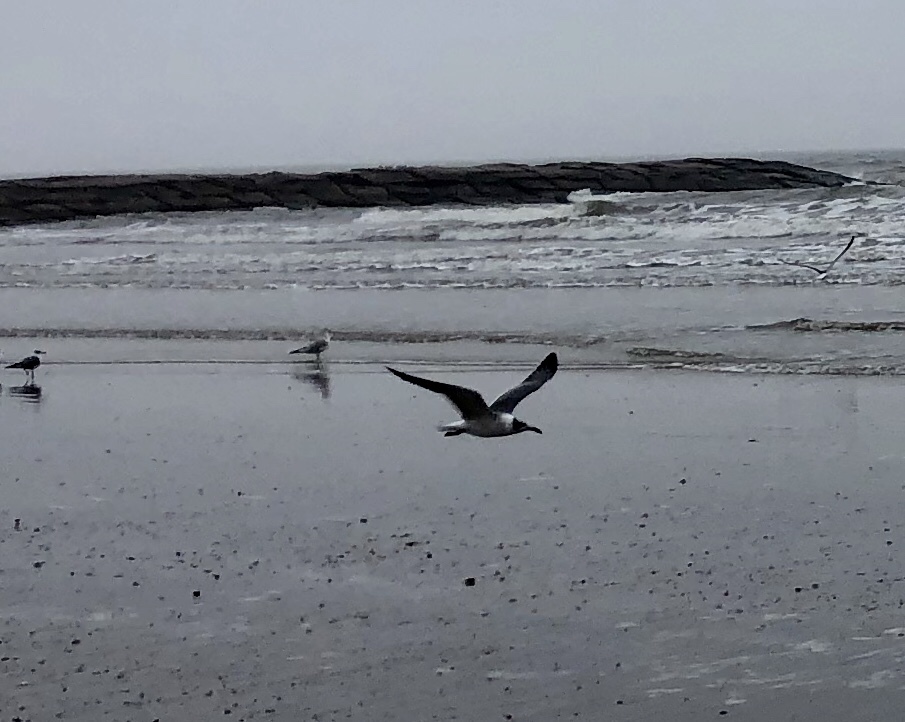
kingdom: Animalia
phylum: Chordata
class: Aves
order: Charadriiformes
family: Laridae
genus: Leucophaeus
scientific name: Leucophaeus atricilla
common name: Laughing gull
